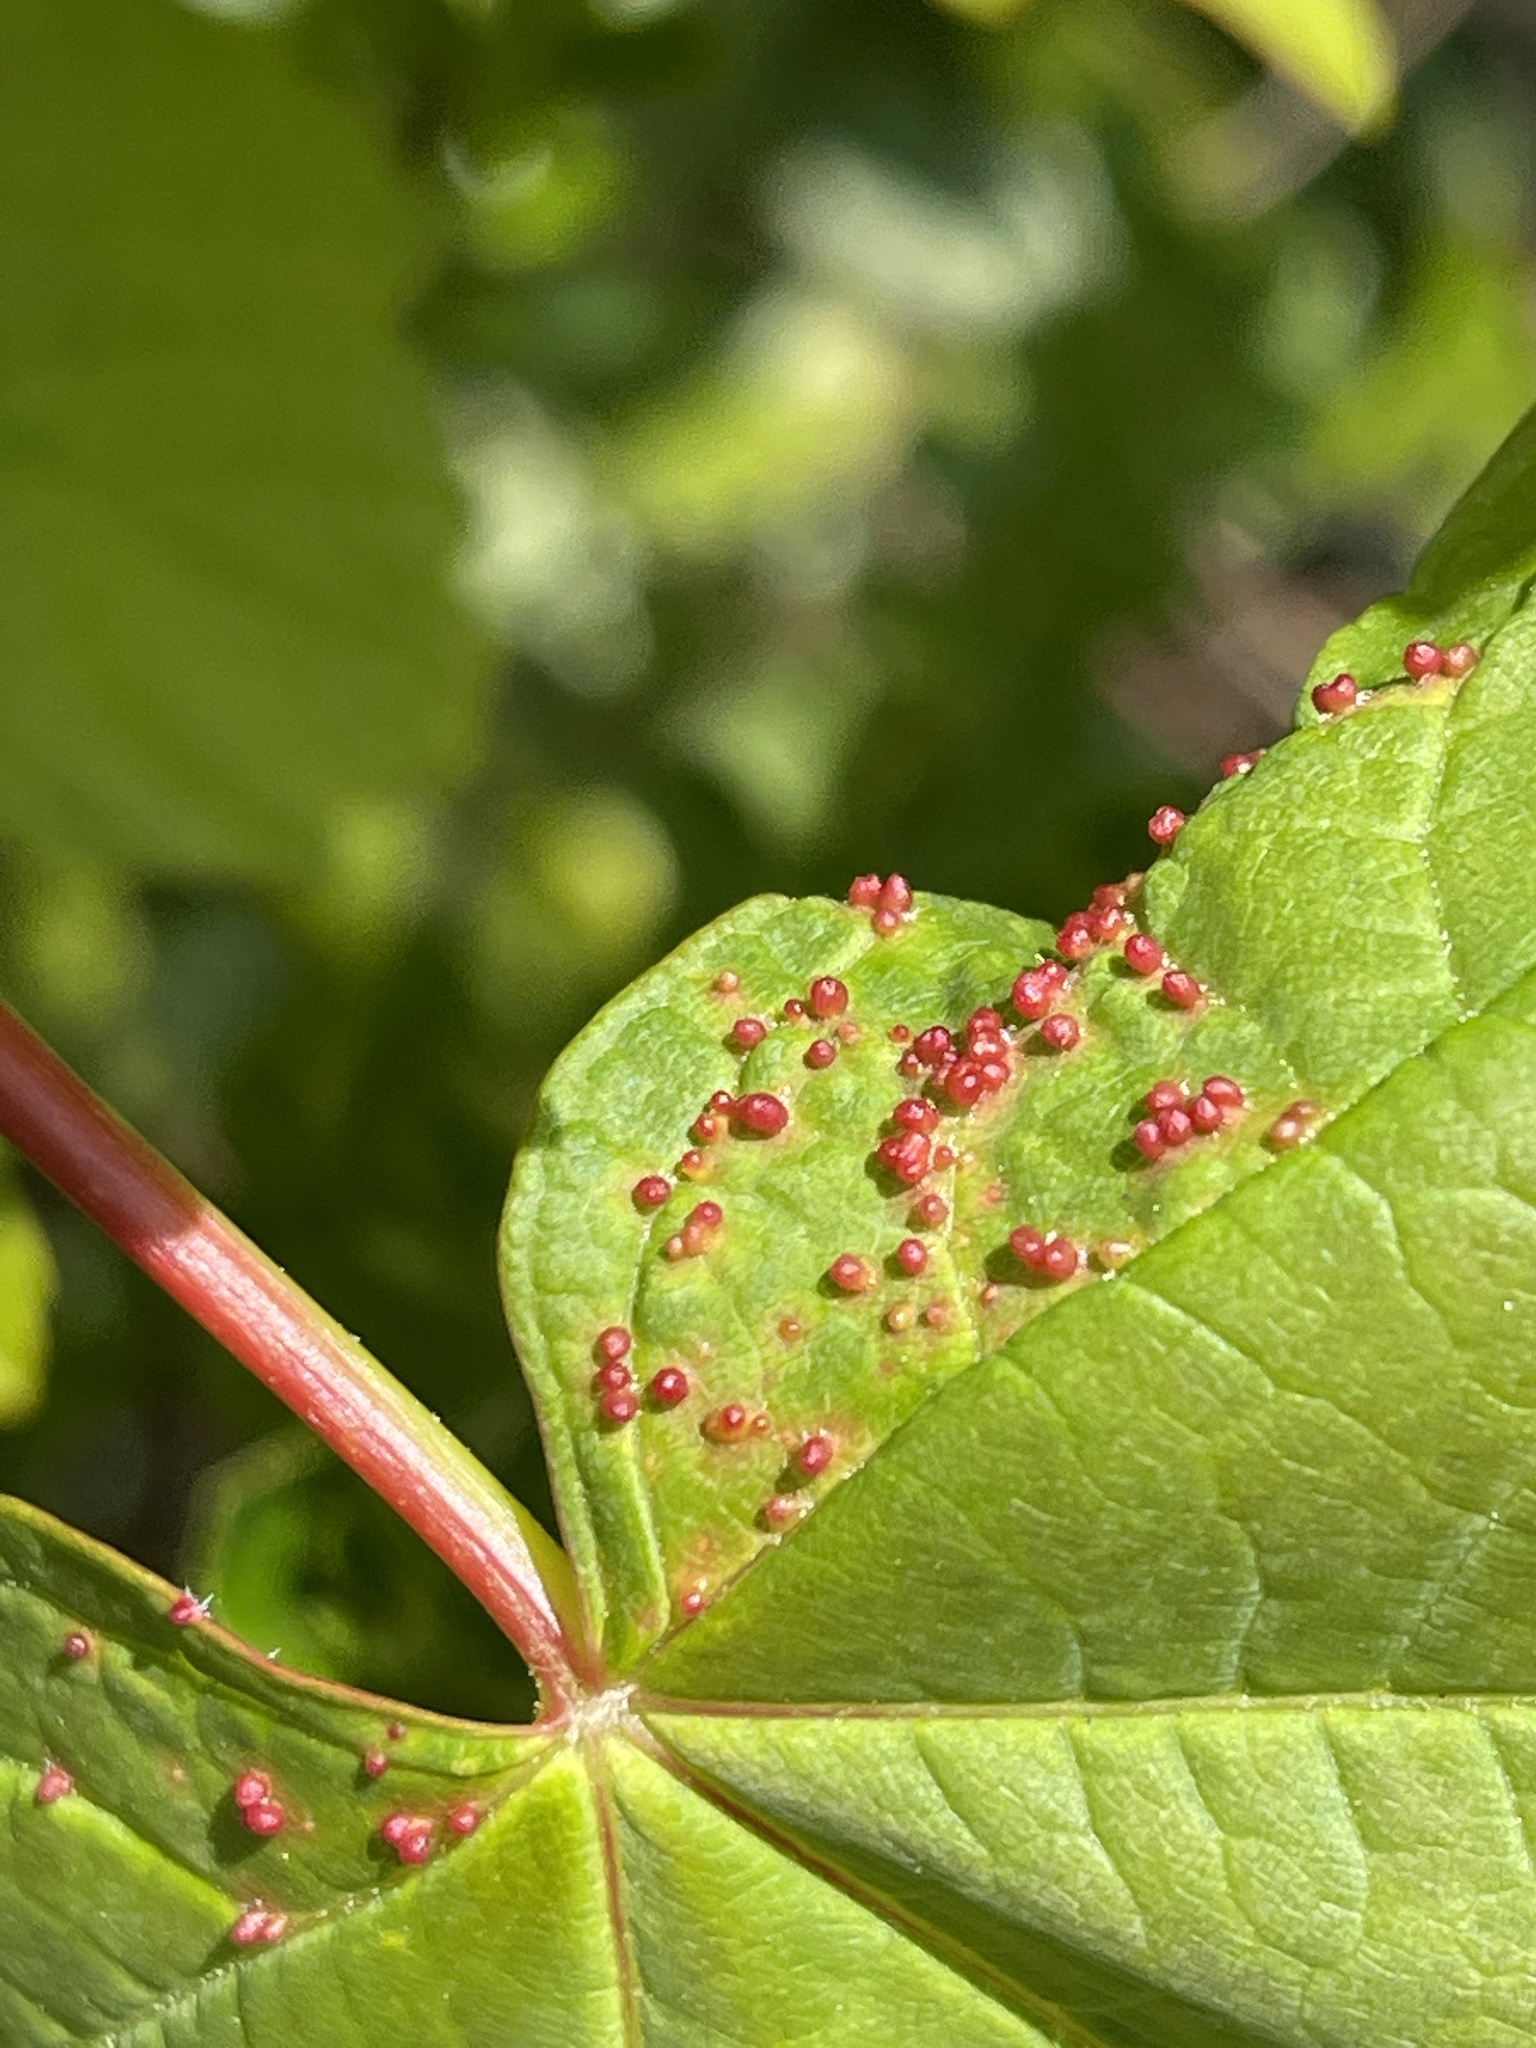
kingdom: Animalia
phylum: Arthropoda
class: Arachnida
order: Trombidiformes
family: Eriophyidae
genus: Aceria
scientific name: Aceria cephaloneus
